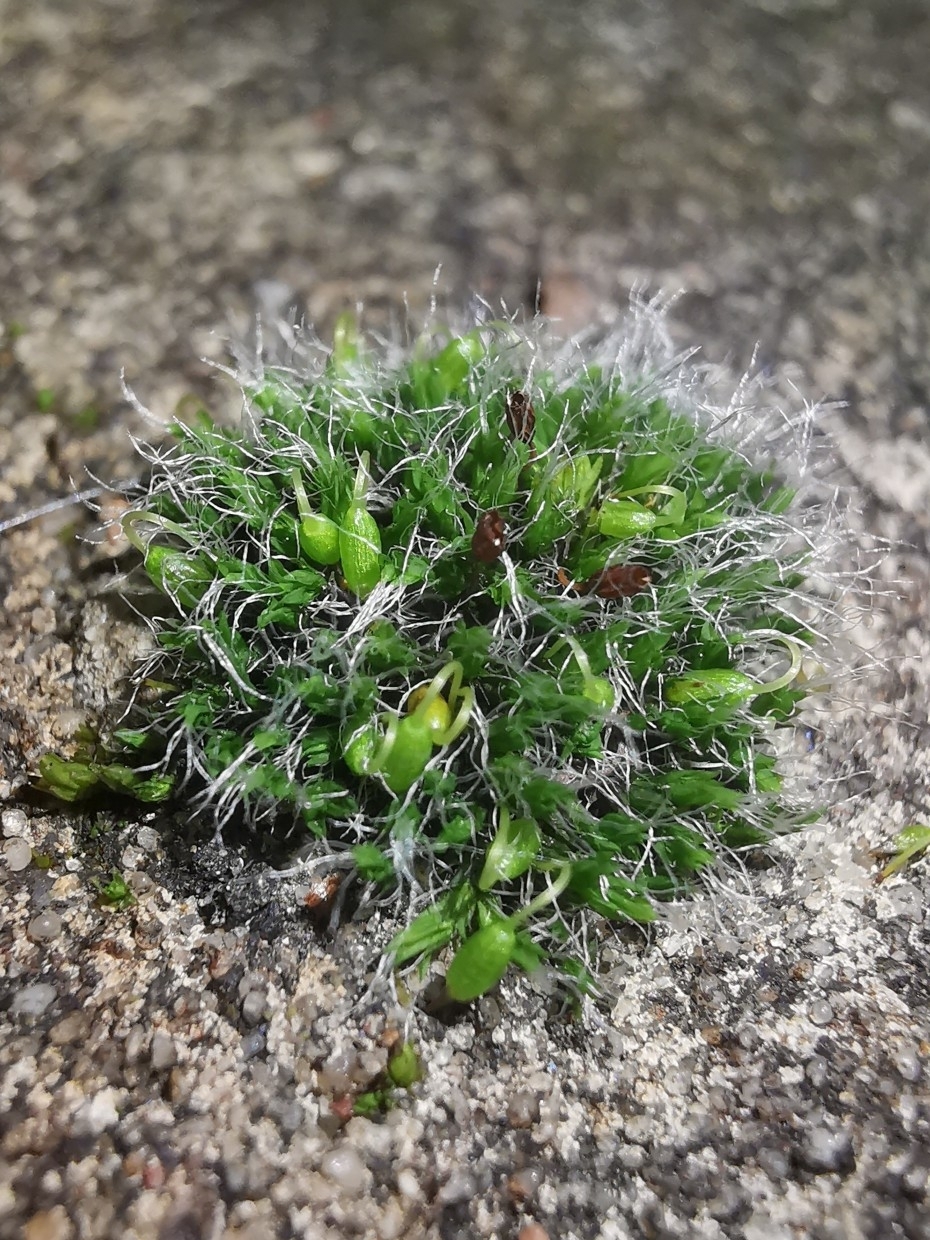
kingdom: Plantae
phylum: Bryophyta
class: Bryopsida
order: Grimmiales
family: Grimmiaceae
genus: Grimmia
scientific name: Grimmia pulvinata
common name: Grey-cushioned grimmia
